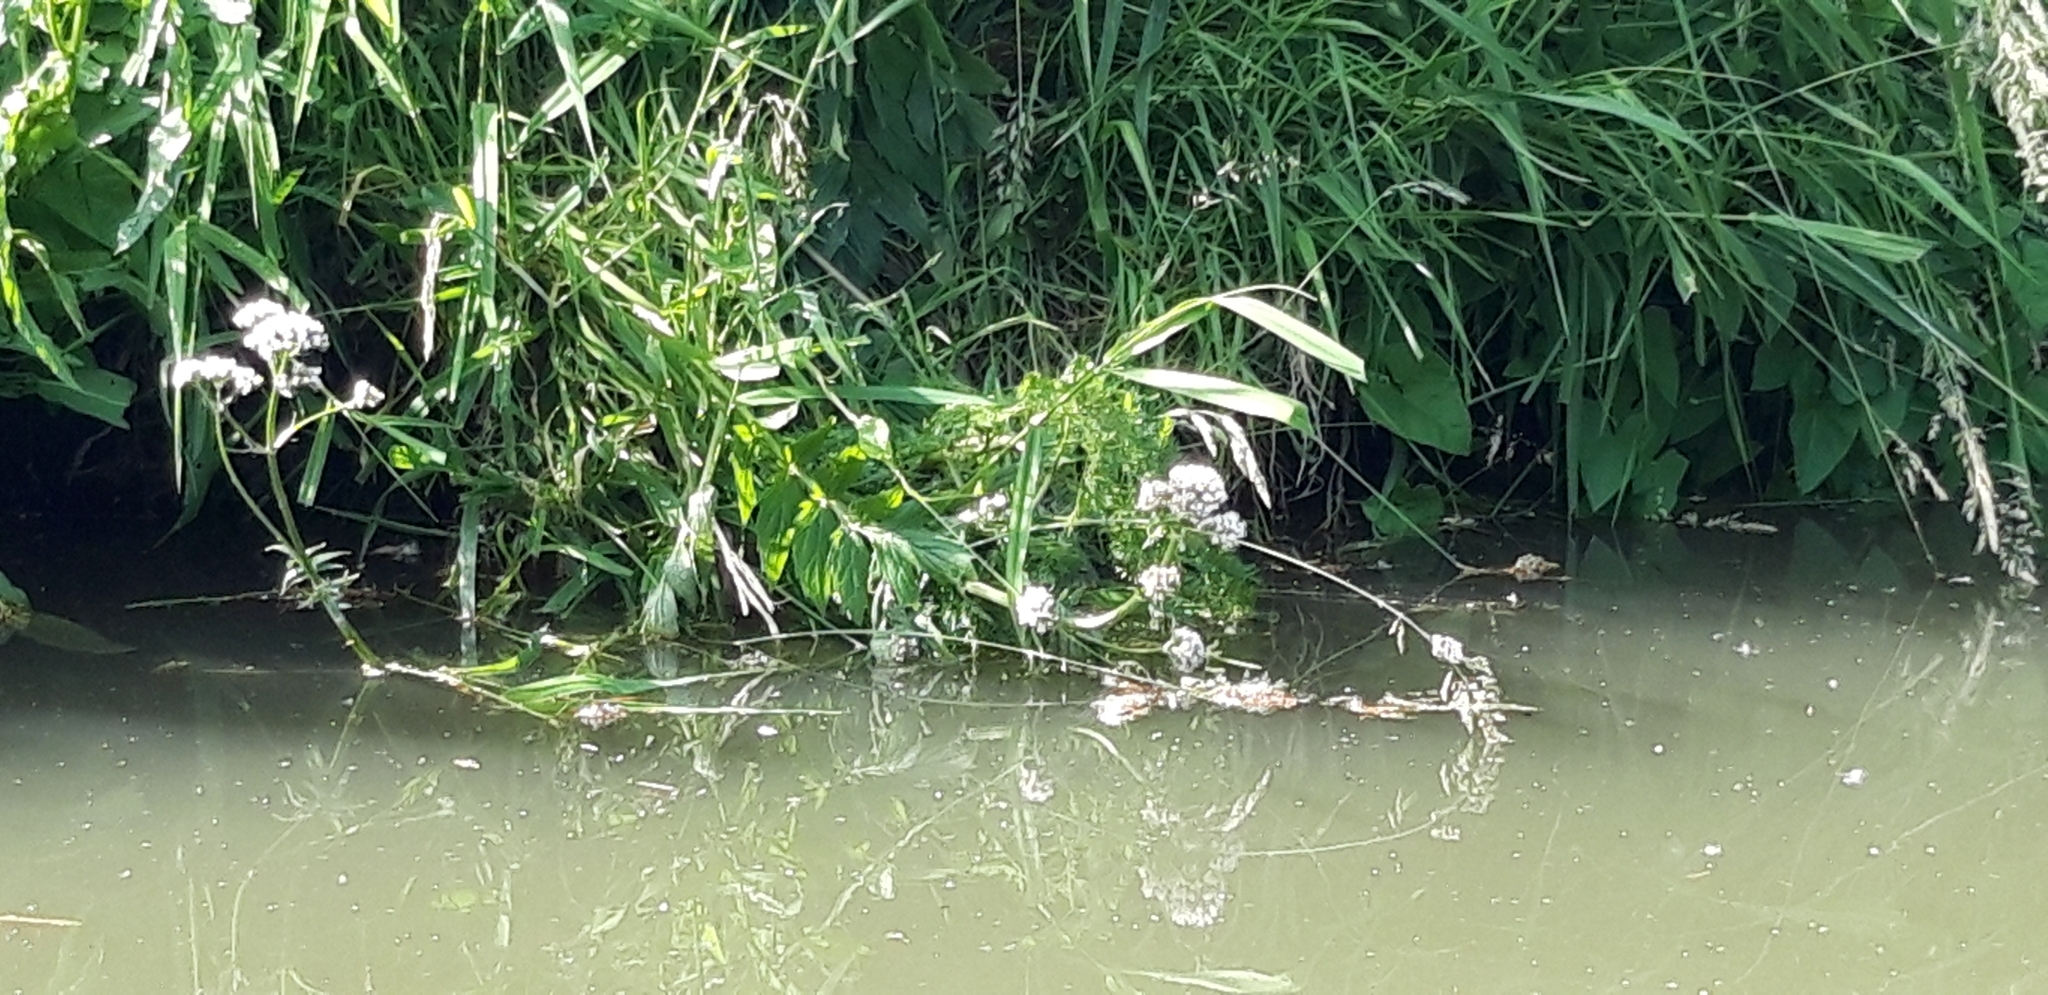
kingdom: Plantae
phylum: Tracheophyta
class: Magnoliopsida
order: Dipsacales
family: Caprifoliaceae
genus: Valeriana
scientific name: Valeriana officinalis
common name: Common valerian
